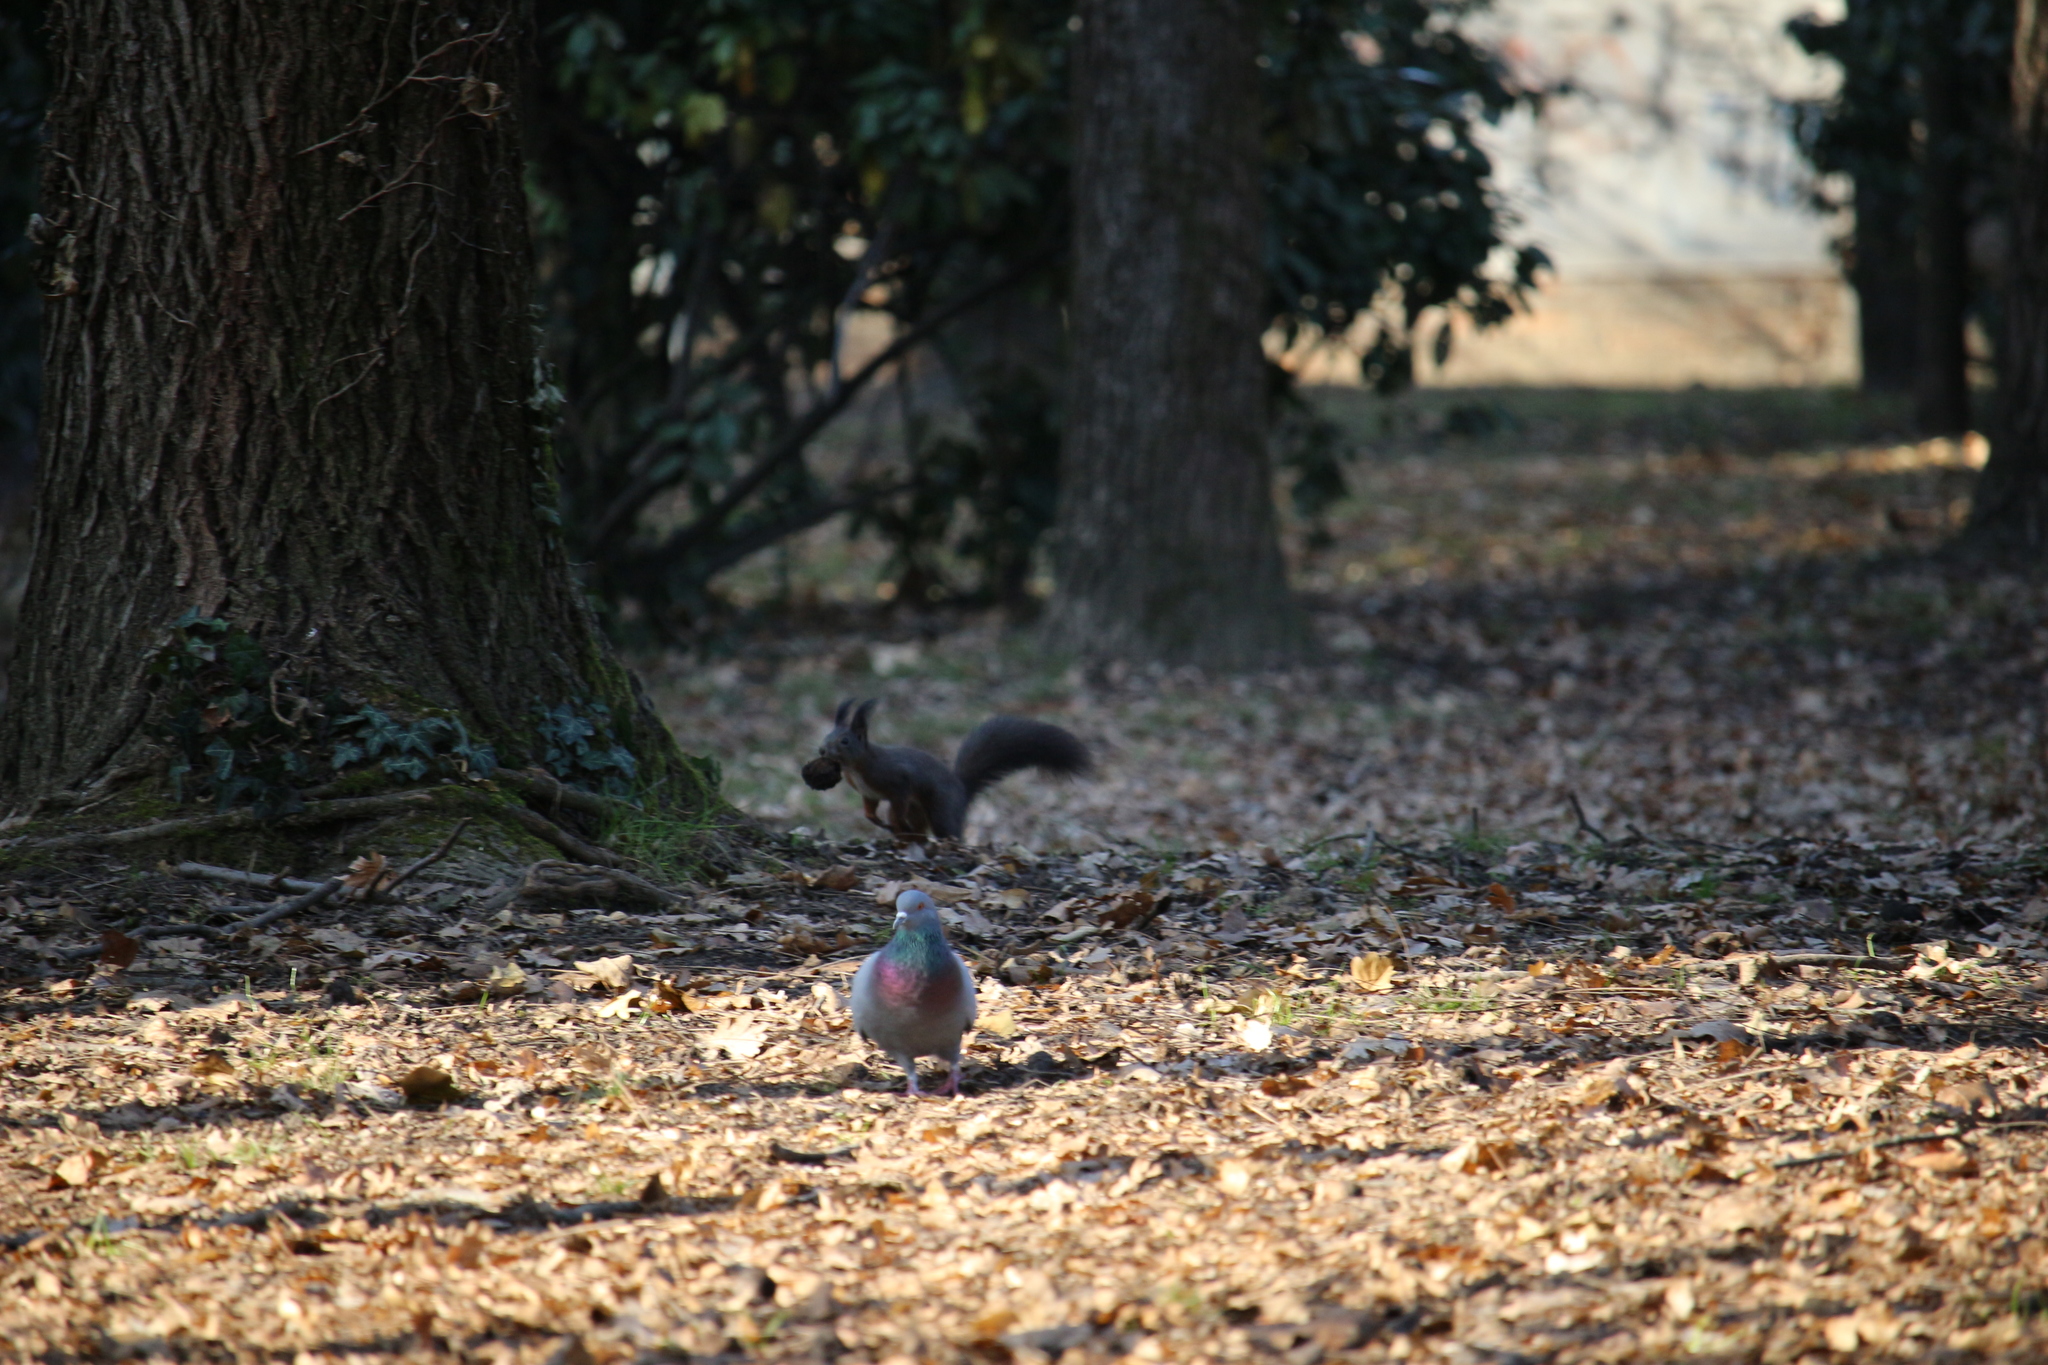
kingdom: Animalia
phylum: Chordata
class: Mammalia
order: Rodentia
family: Sciuridae
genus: Sciurus
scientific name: Sciurus vulgaris
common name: Eurasian red squirrel
